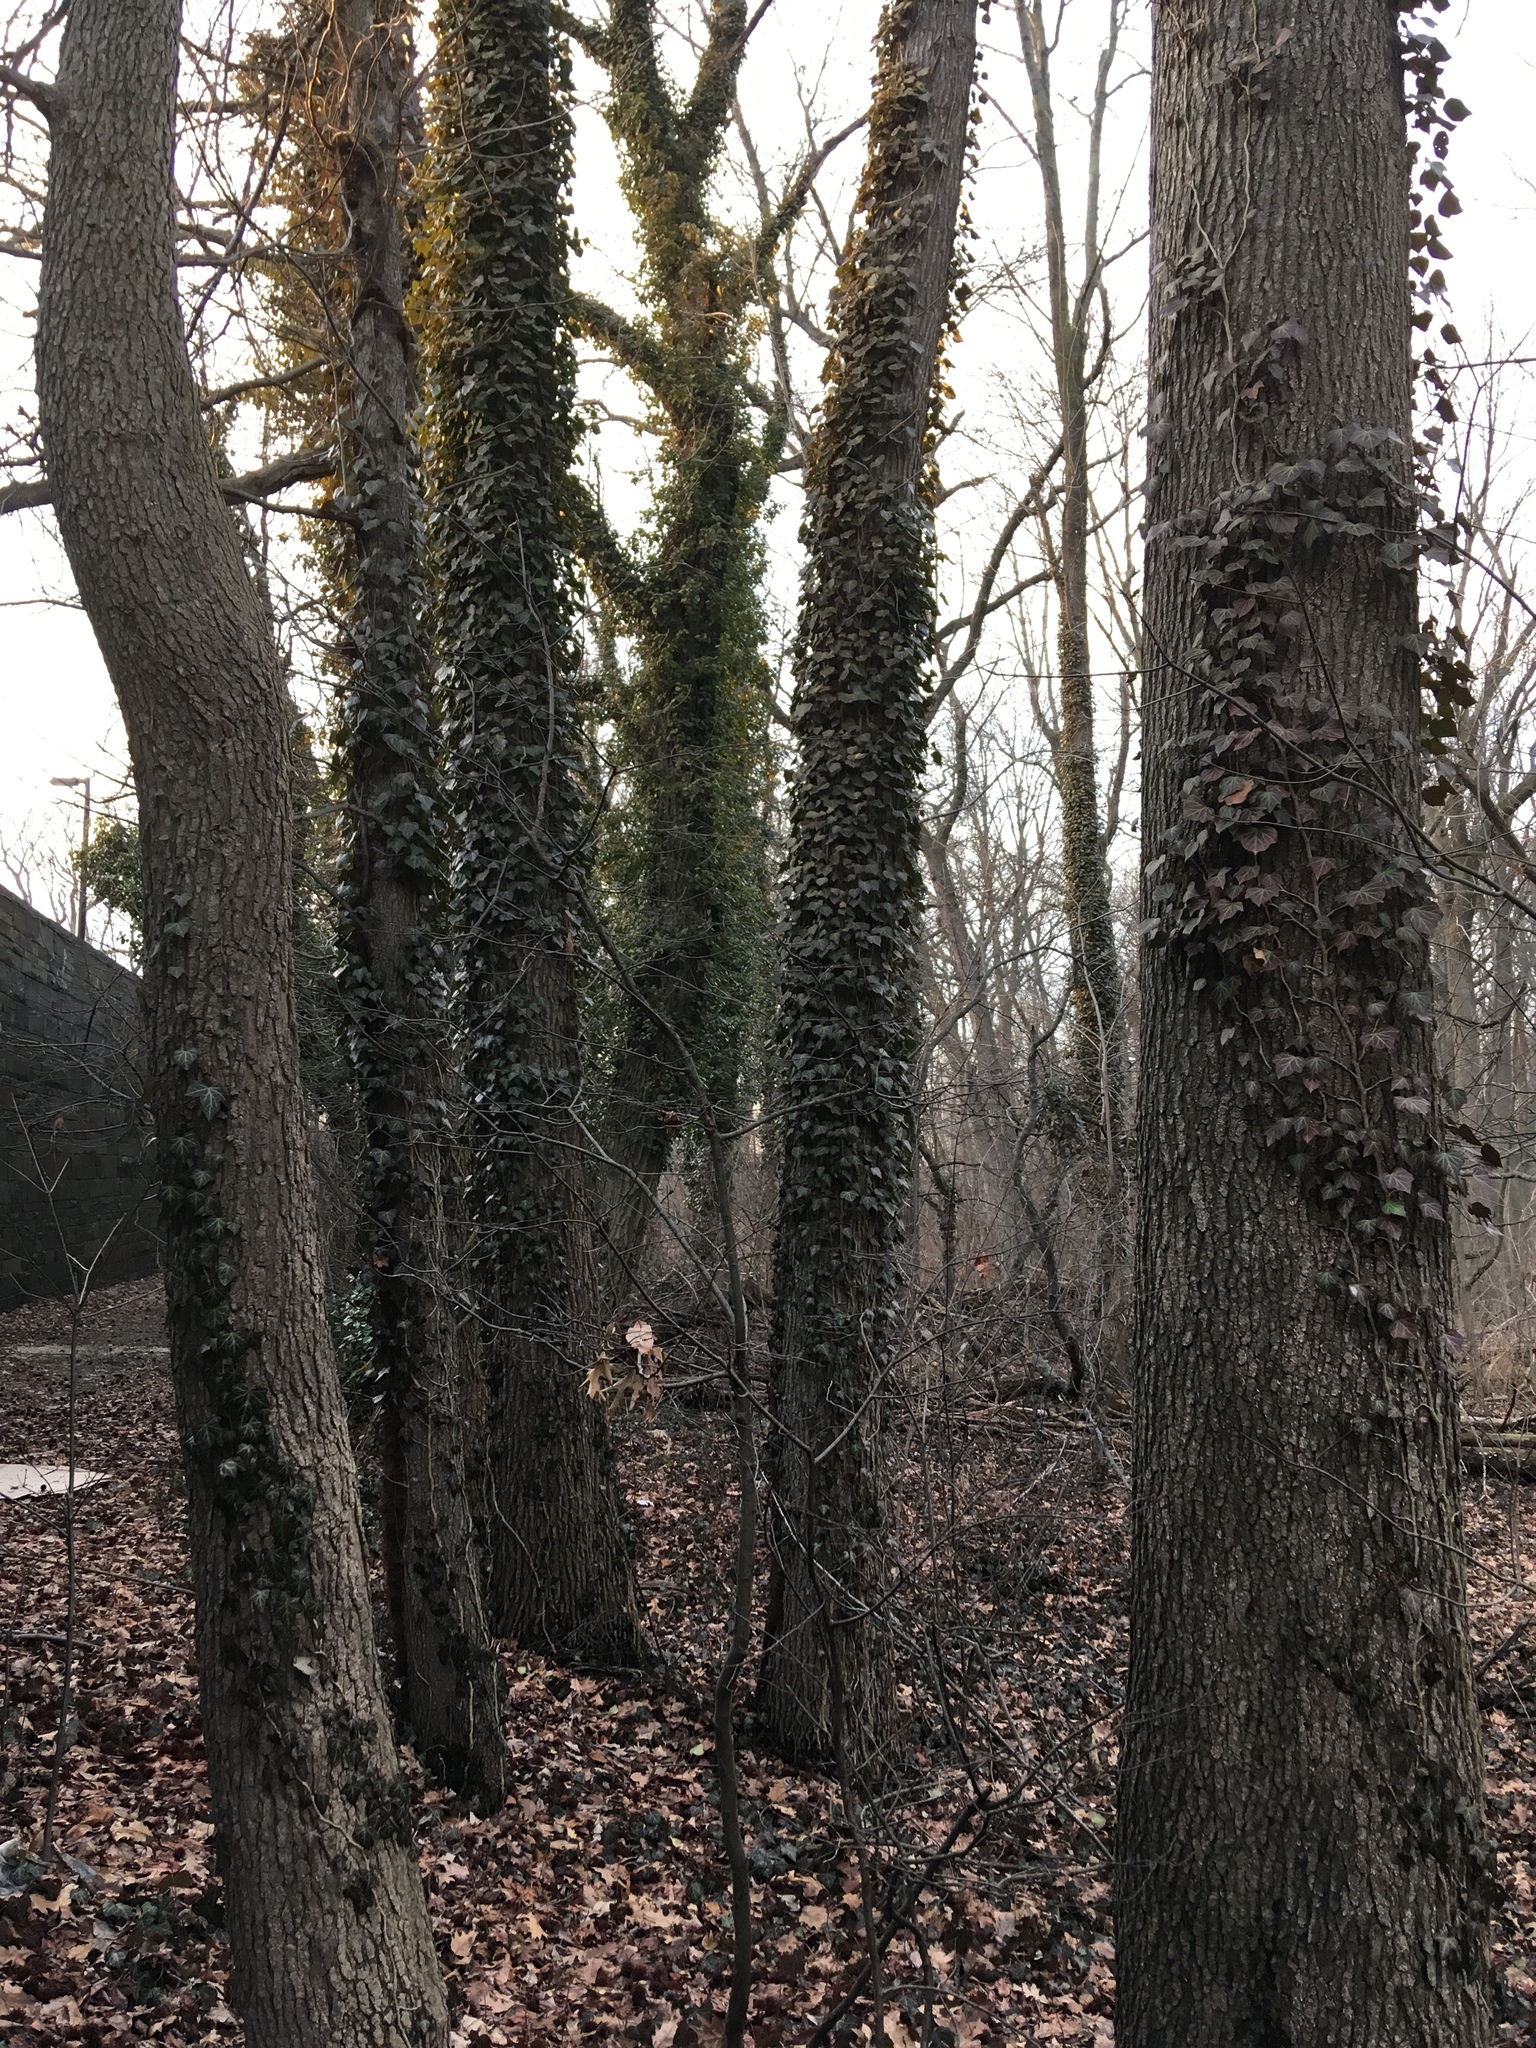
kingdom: Plantae
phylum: Tracheophyta
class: Magnoliopsida
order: Apiales
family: Araliaceae
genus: Hedera
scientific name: Hedera helix
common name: Ivy
